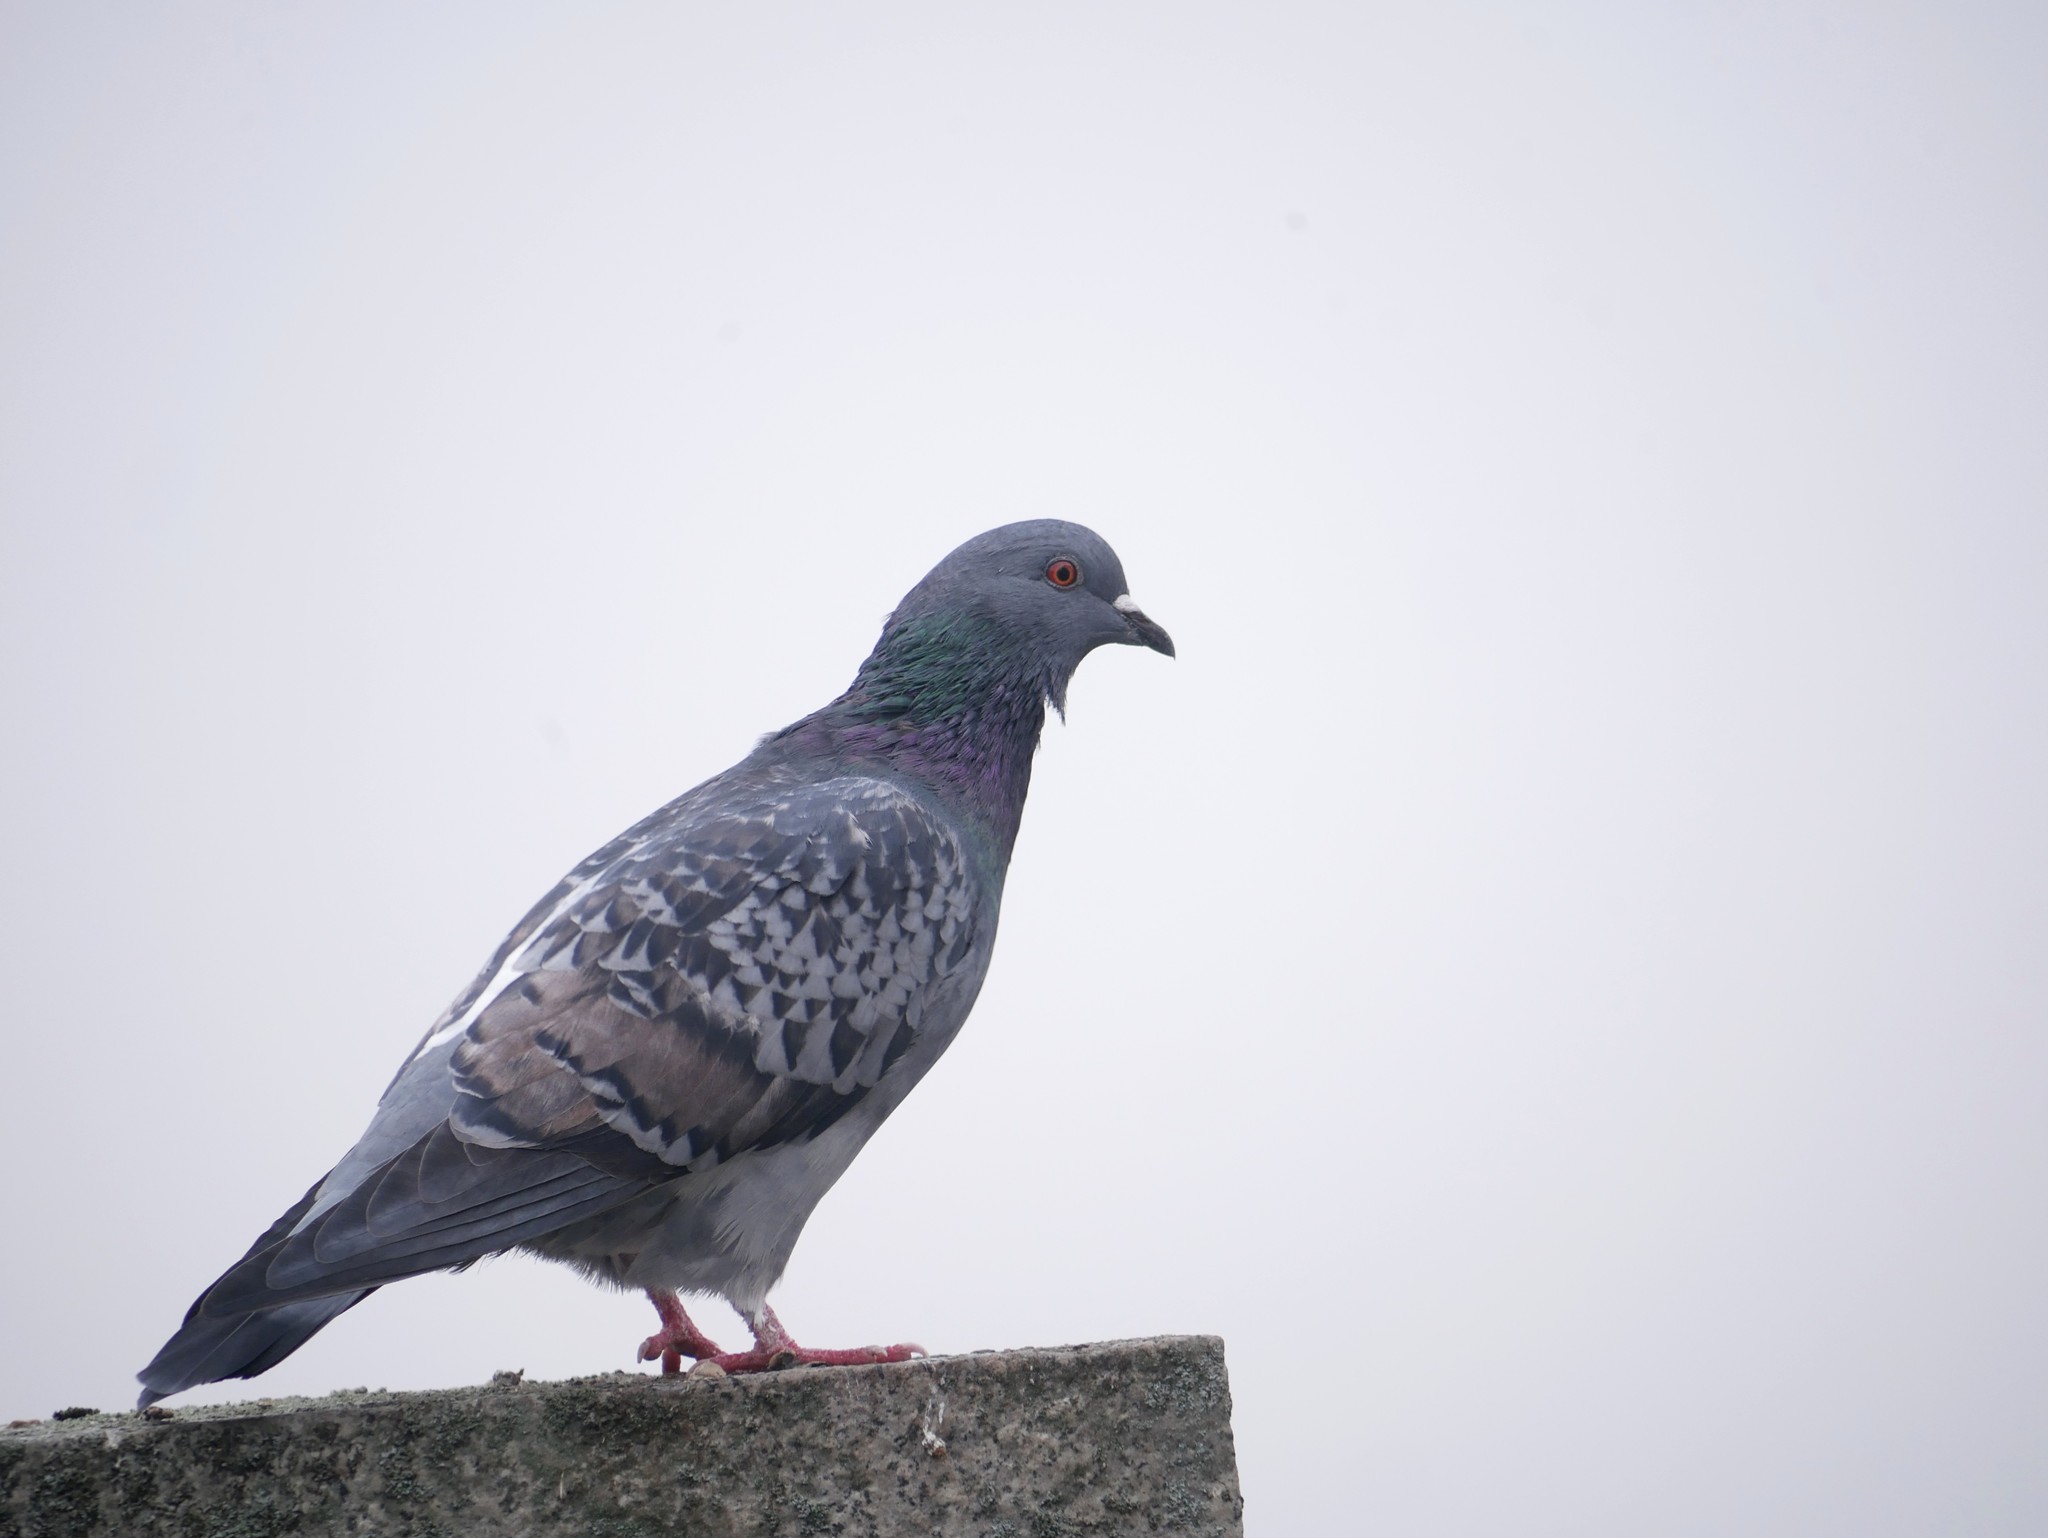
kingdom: Animalia
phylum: Chordata
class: Aves
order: Columbiformes
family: Columbidae
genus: Columba
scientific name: Columba livia
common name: Rock pigeon
